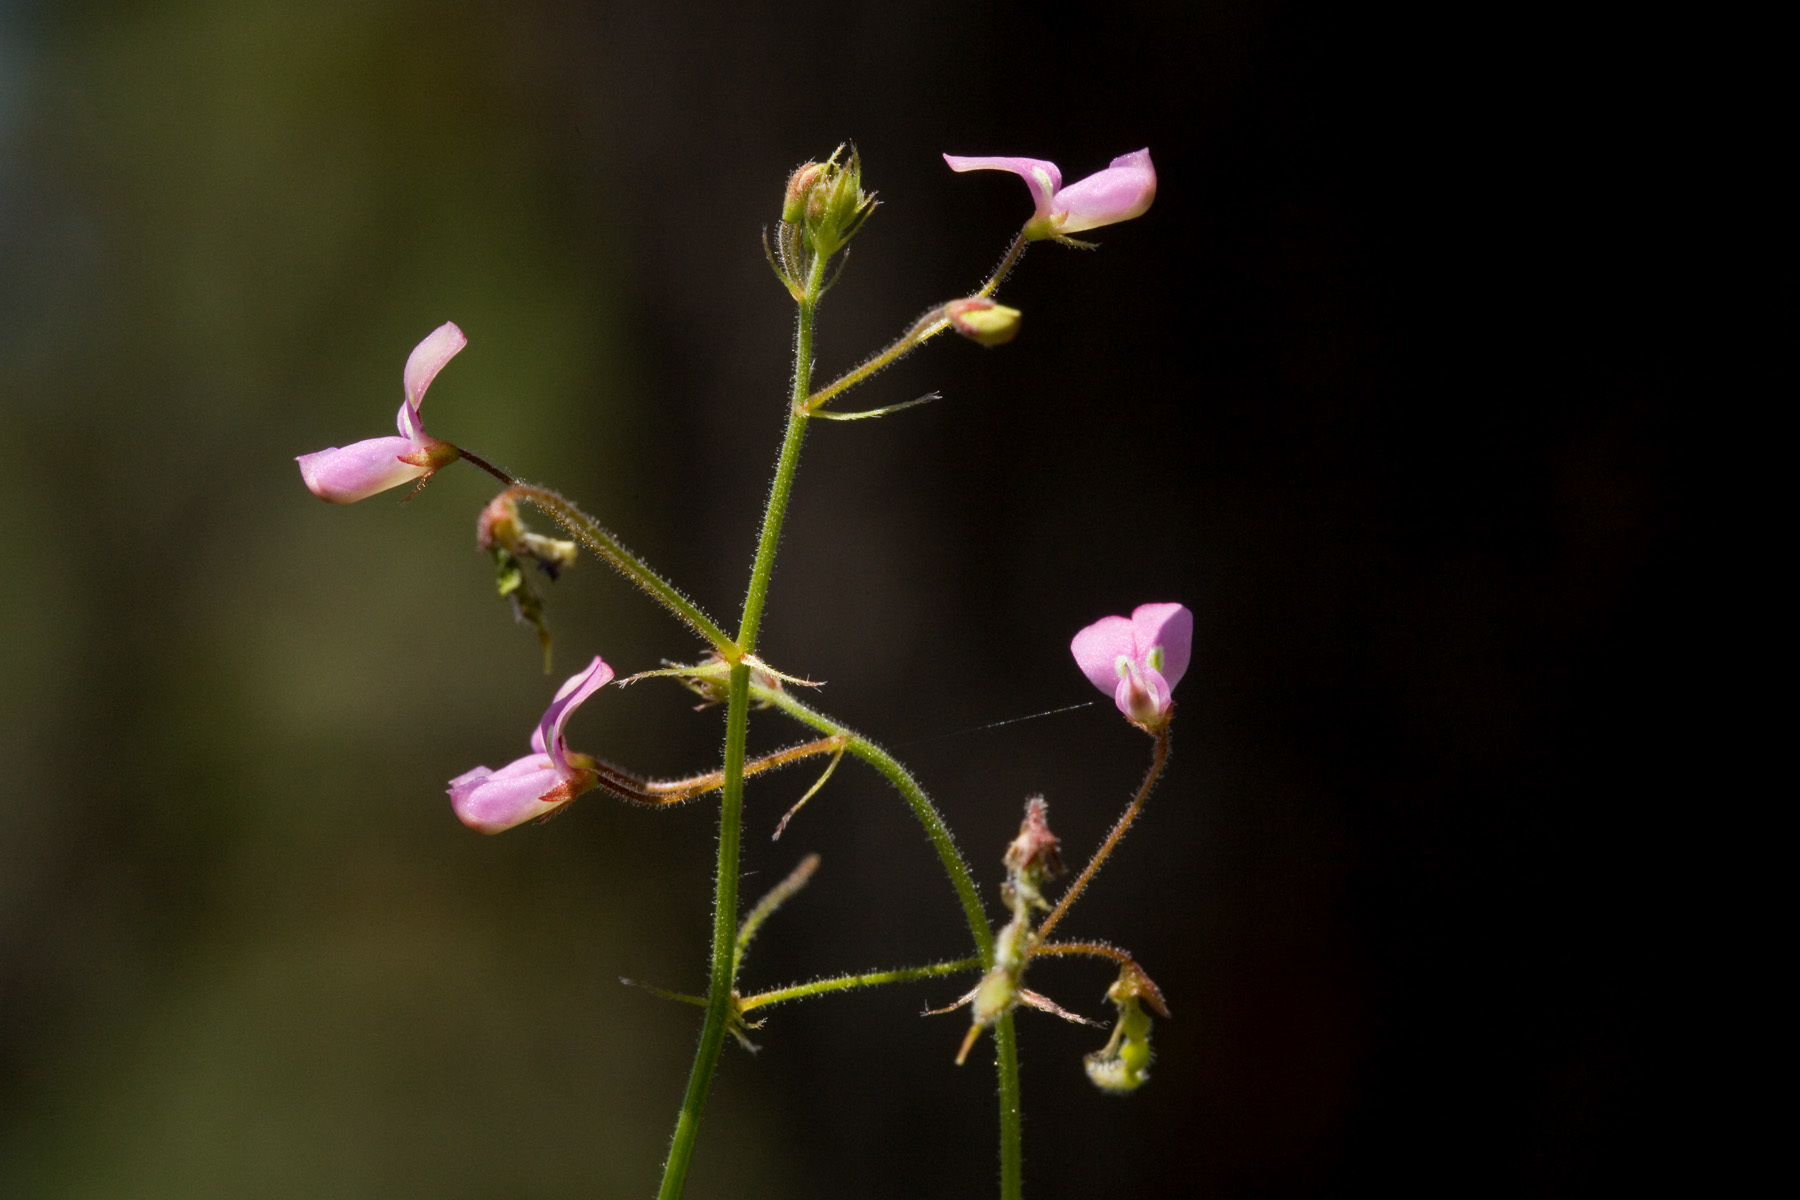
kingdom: Plantae
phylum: Tracheophyta
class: Magnoliopsida
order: Fabales
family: Fabaceae
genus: Desmodium
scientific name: Desmodium rosei
